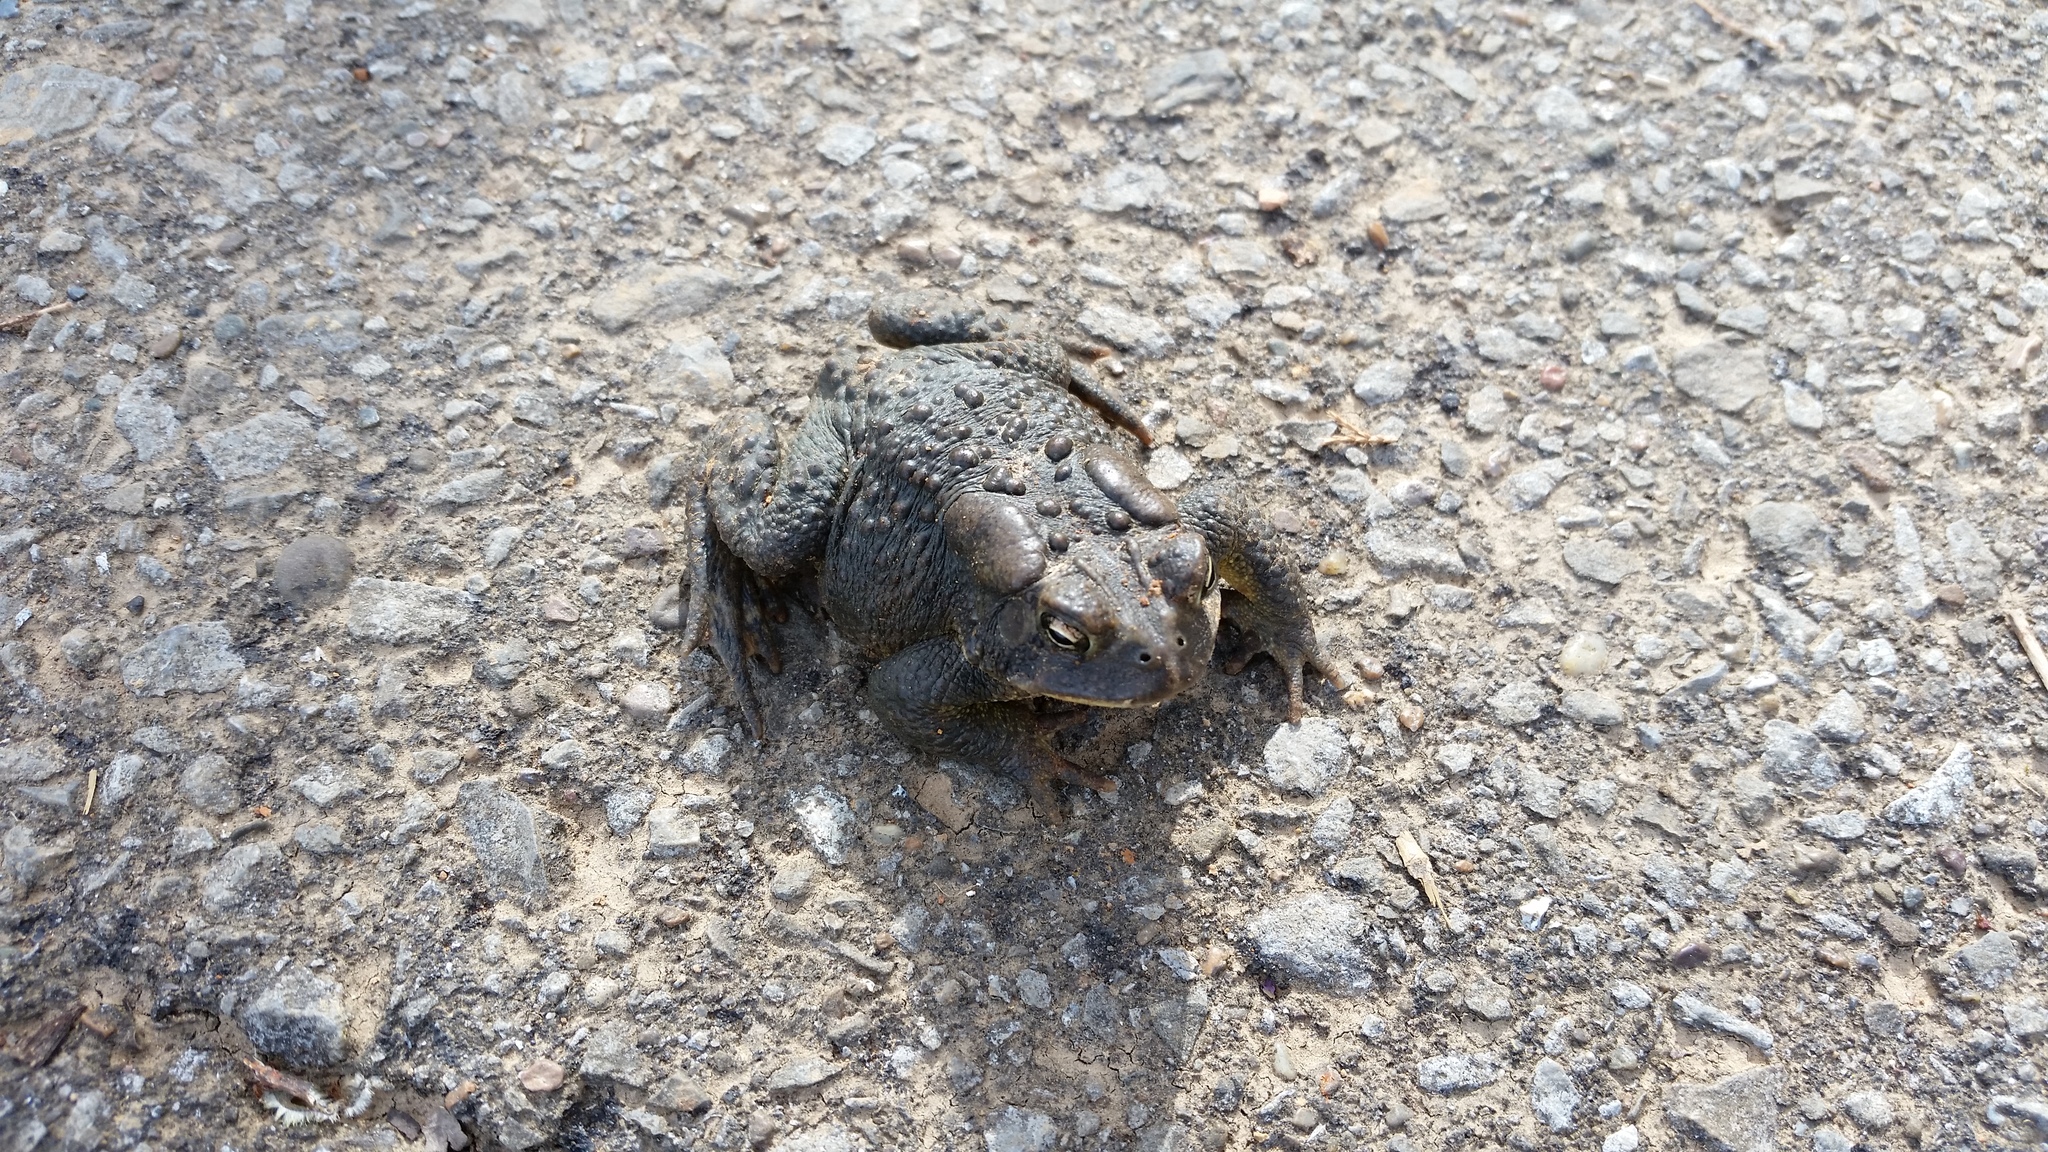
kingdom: Animalia
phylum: Chordata
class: Amphibia
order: Anura
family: Bufonidae
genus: Anaxyrus
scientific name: Anaxyrus americanus
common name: American toad
